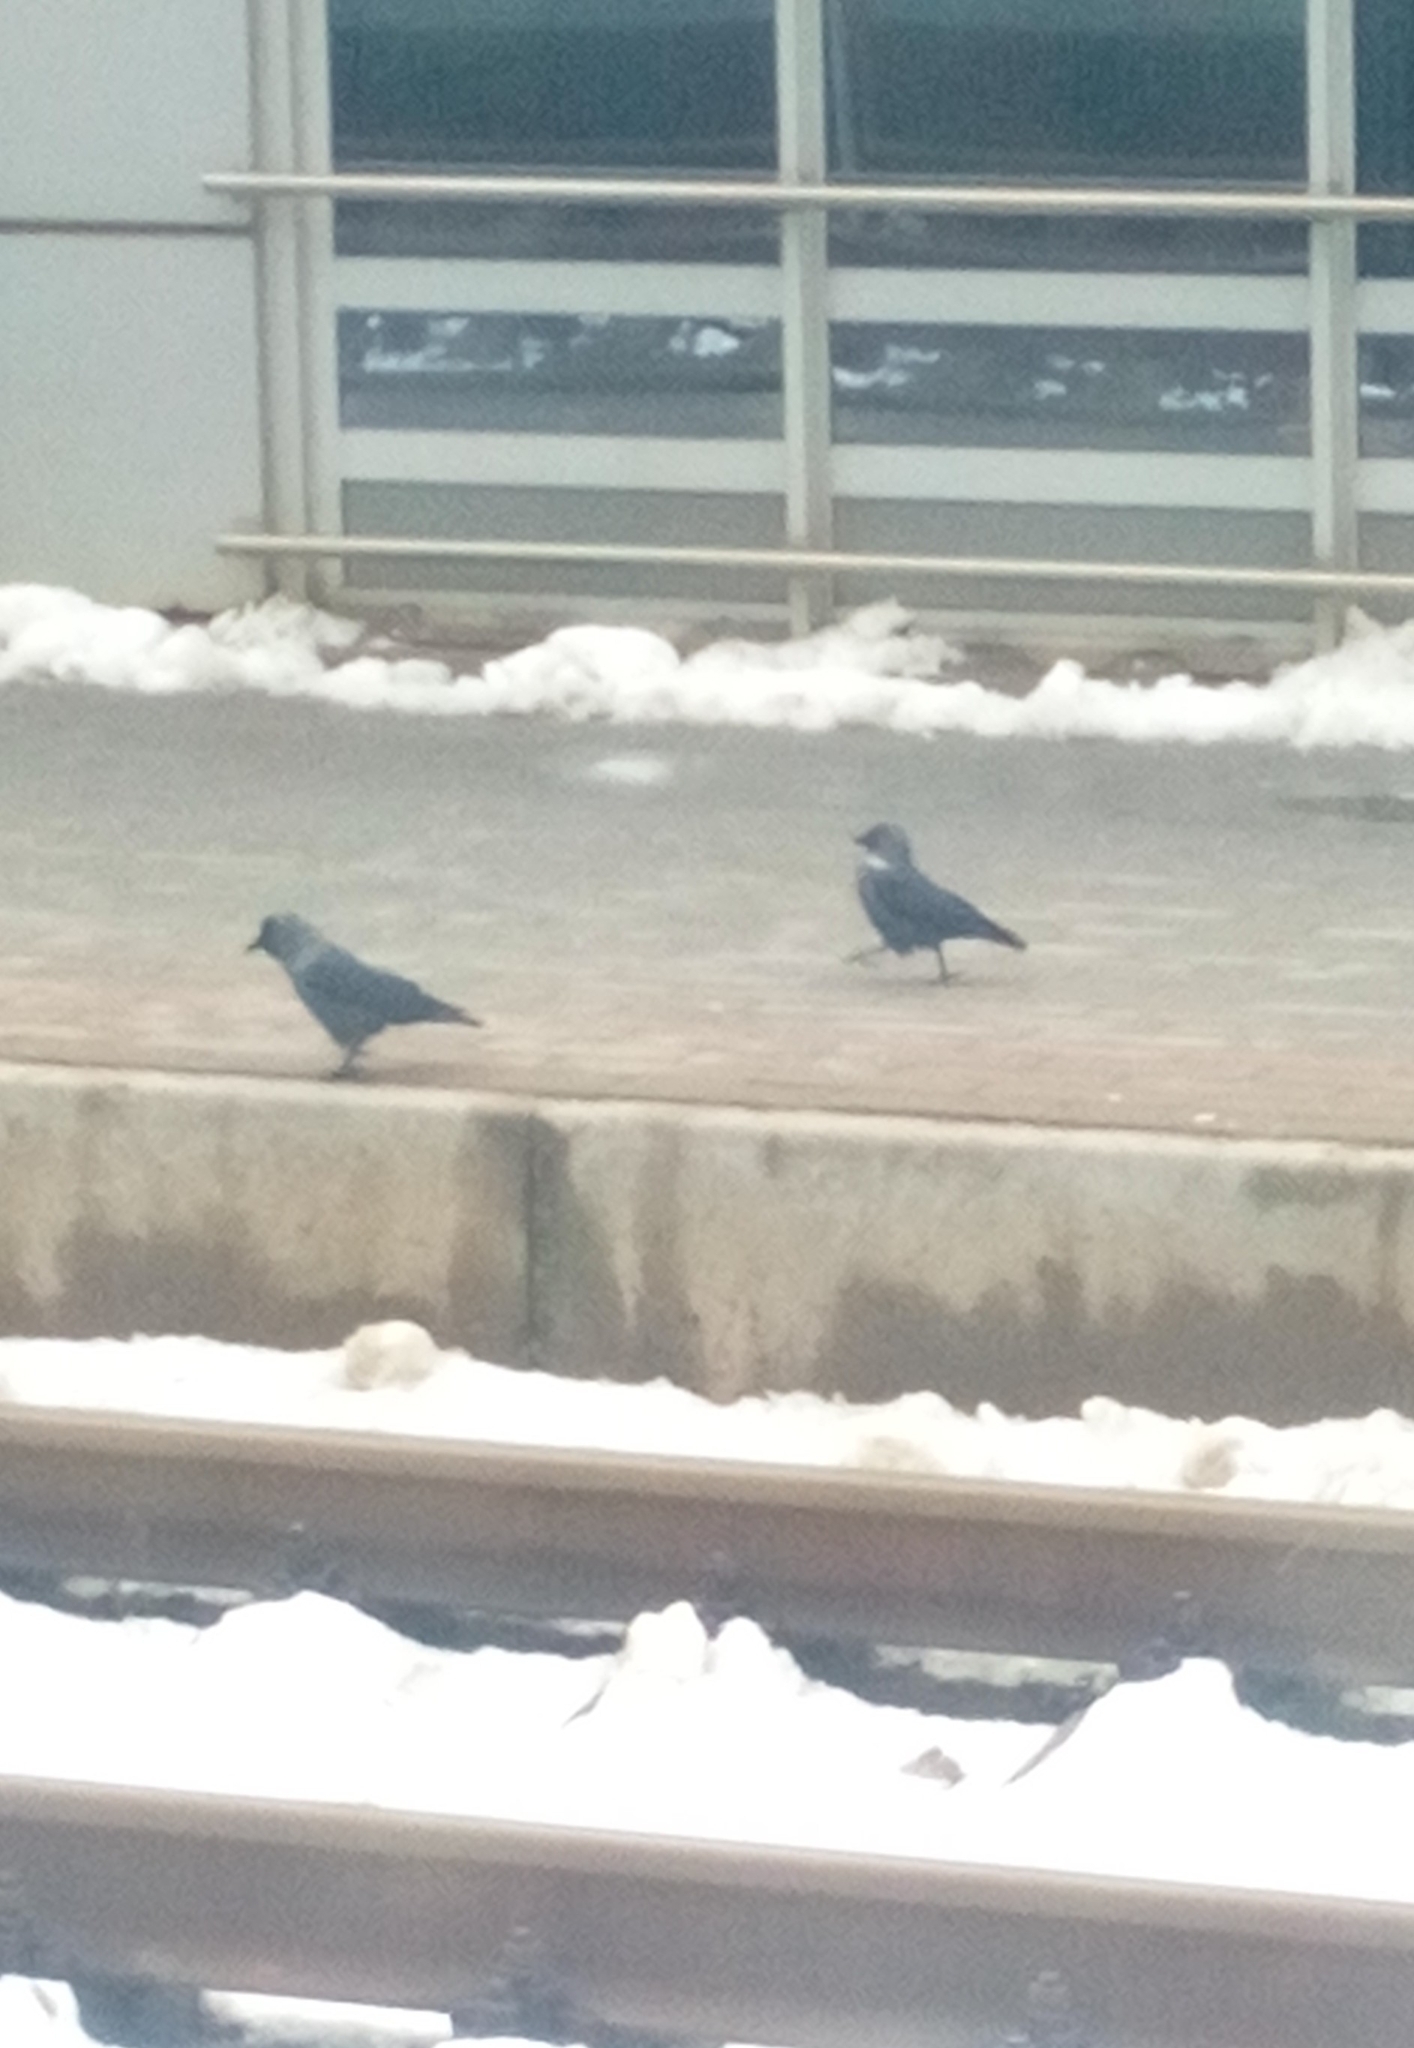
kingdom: Animalia
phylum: Chordata
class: Aves
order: Passeriformes
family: Corvidae
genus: Coloeus
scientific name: Coloeus monedula
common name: Western jackdaw
